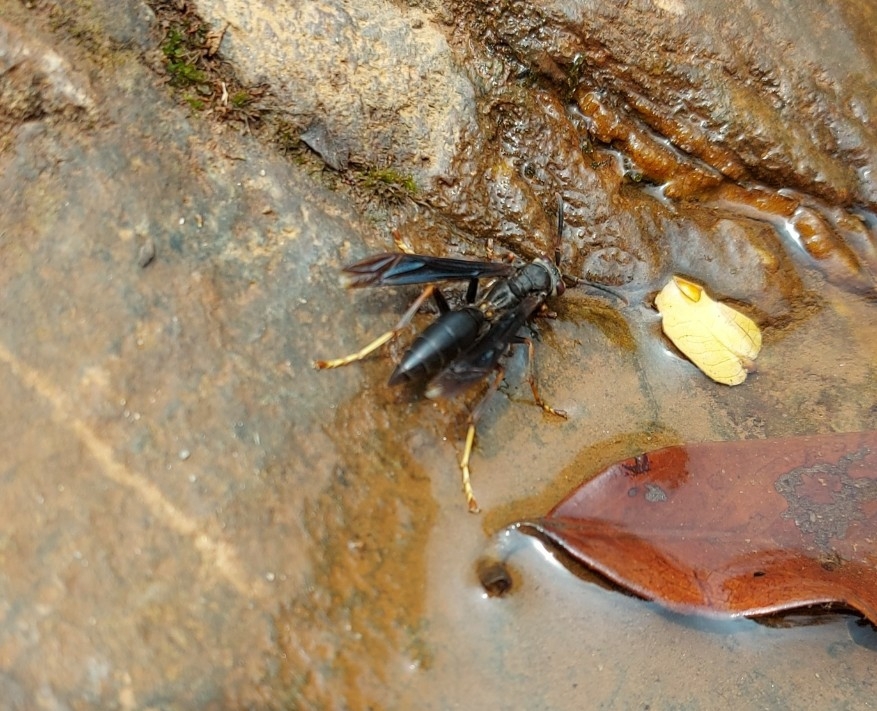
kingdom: Animalia
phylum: Arthropoda
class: Insecta
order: Hymenoptera
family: Eumenidae
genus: Polistes
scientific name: Polistes satan
